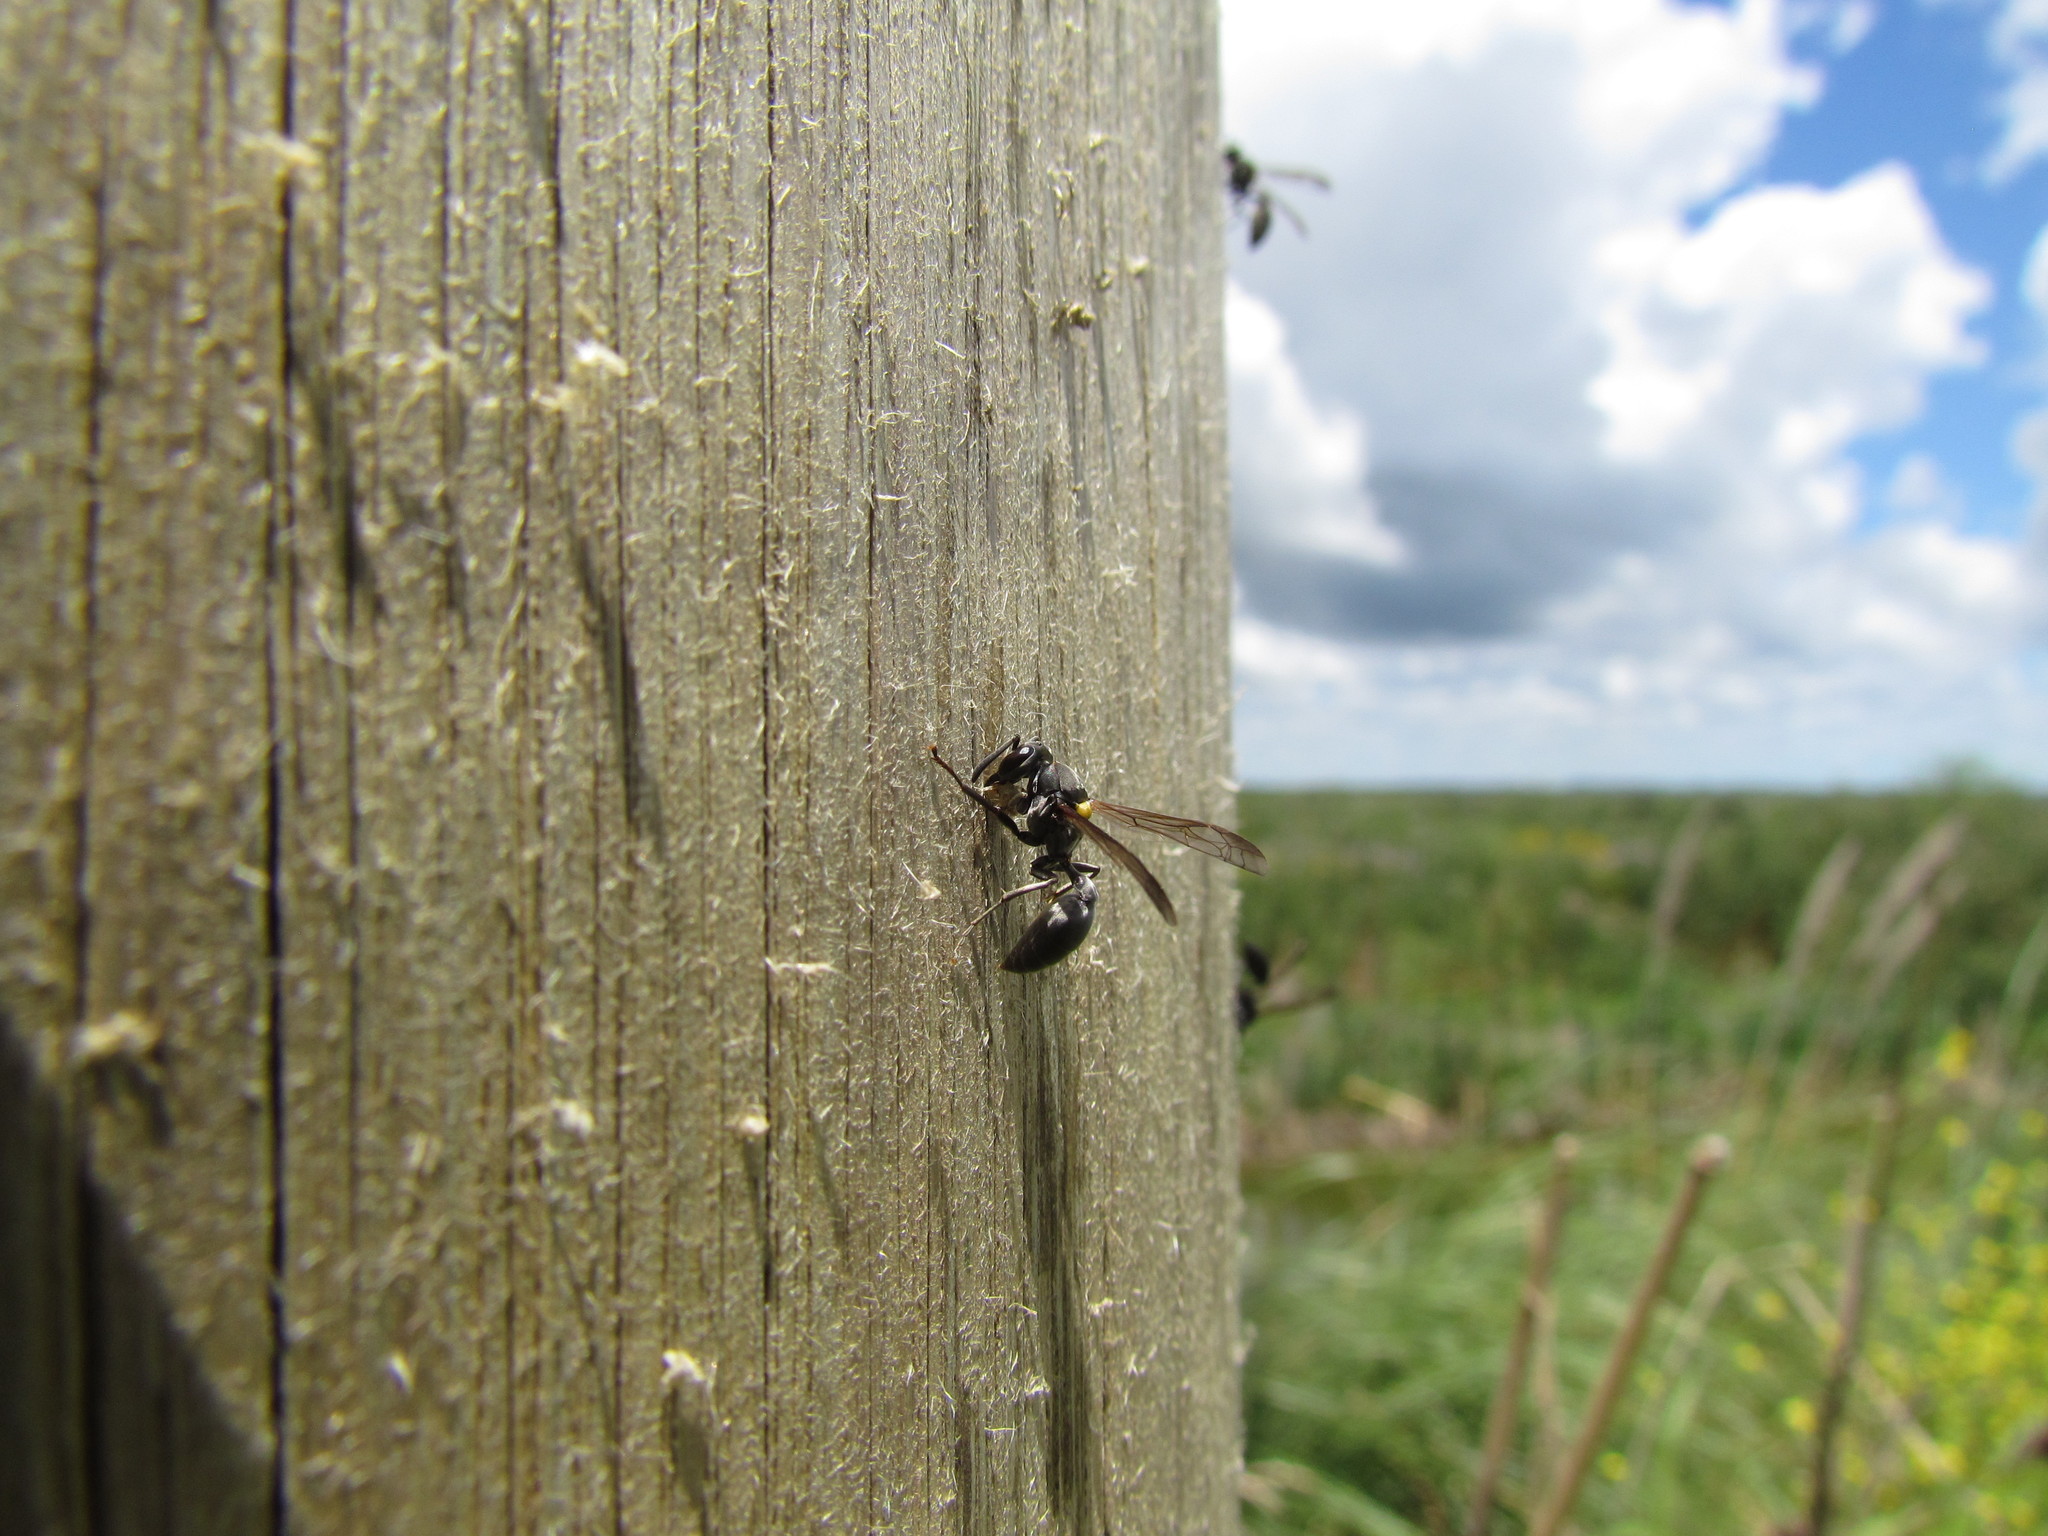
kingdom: Animalia
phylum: Arthropoda
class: Insecta
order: Hymenoptera
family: Eumenidae
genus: Polybia
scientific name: Polybia scutellaris
